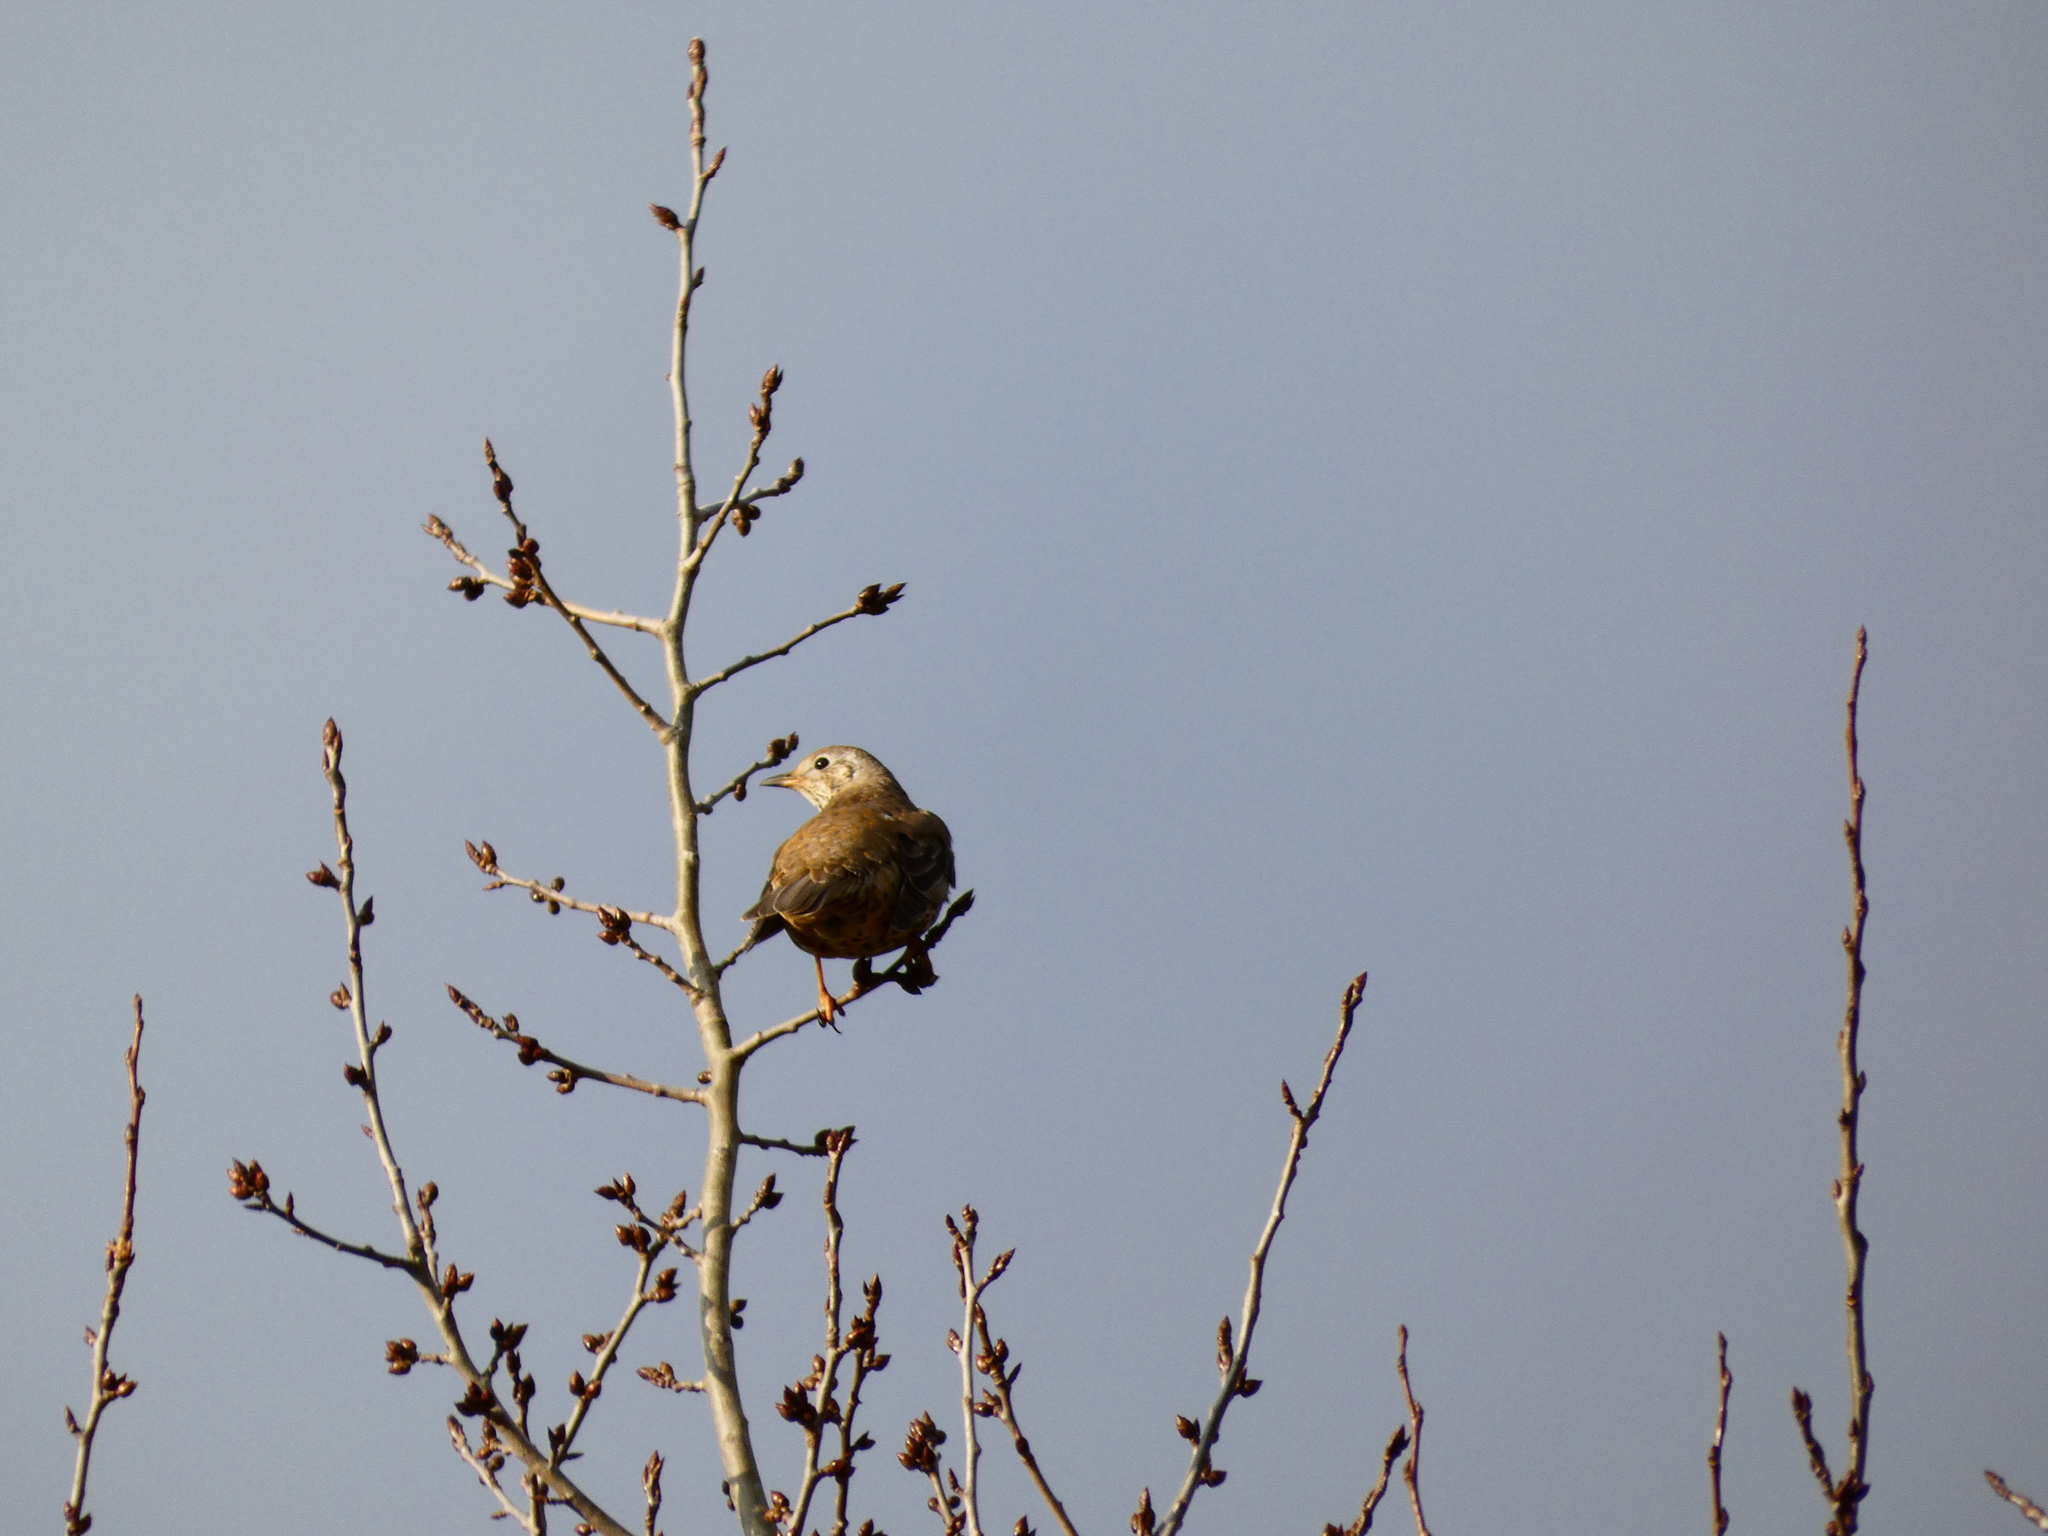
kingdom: Animalia
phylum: Chordata
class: Aves
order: Passeriformes
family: Turdidae
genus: Turdus
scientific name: Turdus pilaris
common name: Fieldfare
